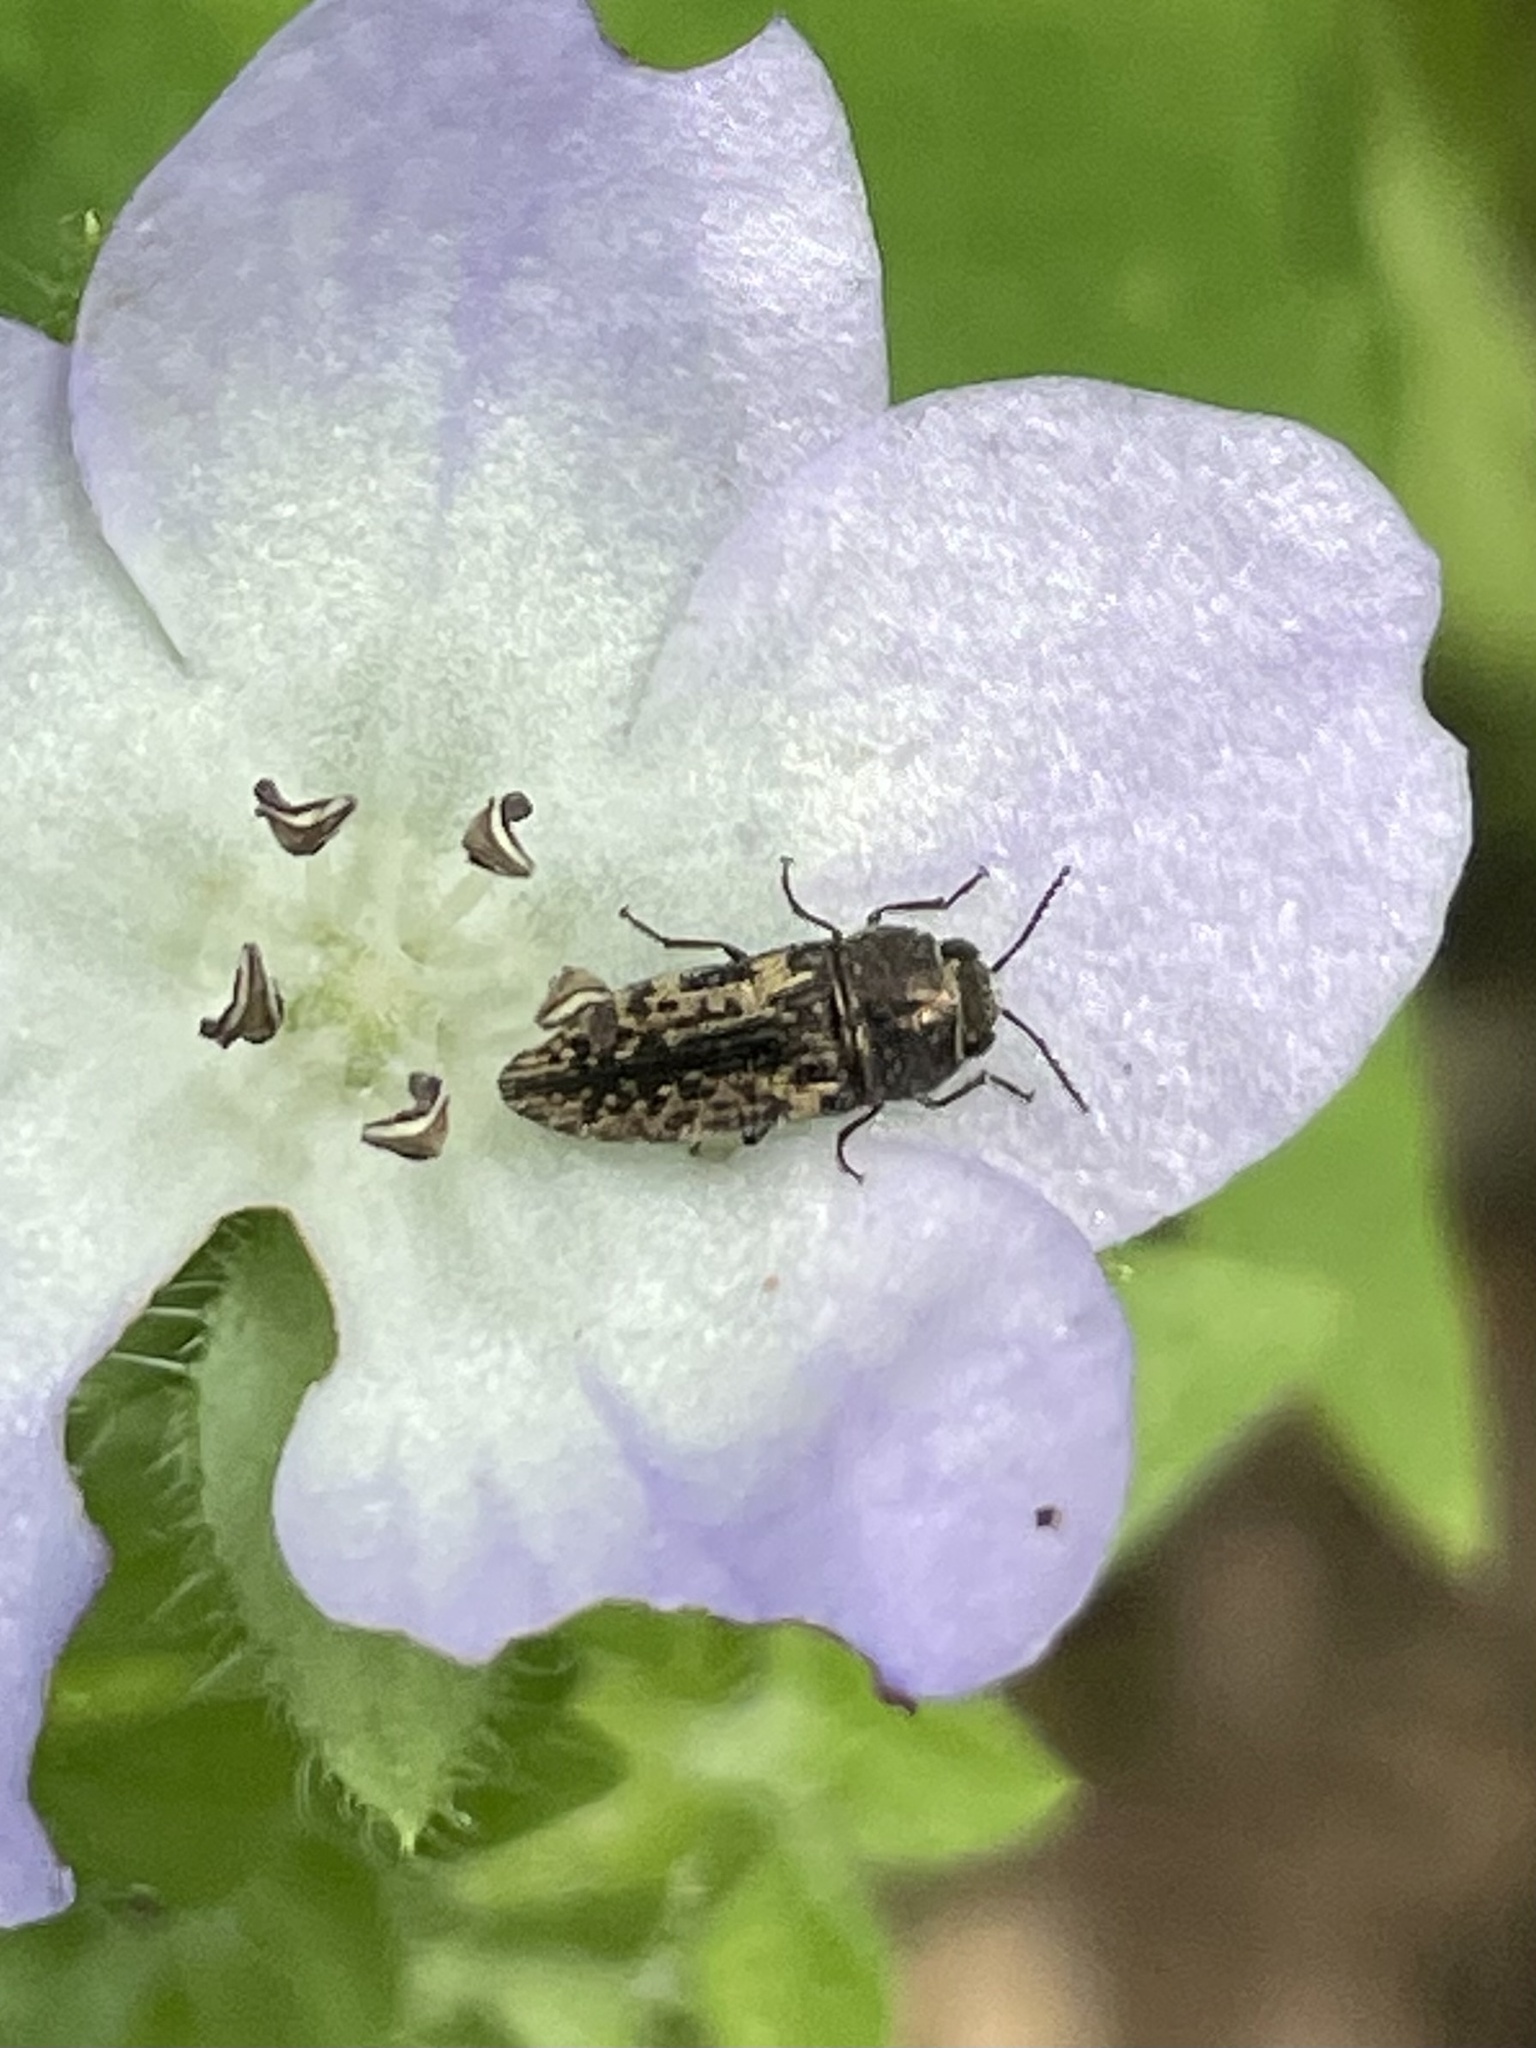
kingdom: Animalia
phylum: Arthropoda
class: Insecta
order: Coleoptera
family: Buprestidae
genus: Acmaeodera
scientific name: Acmaeodera neglecta
